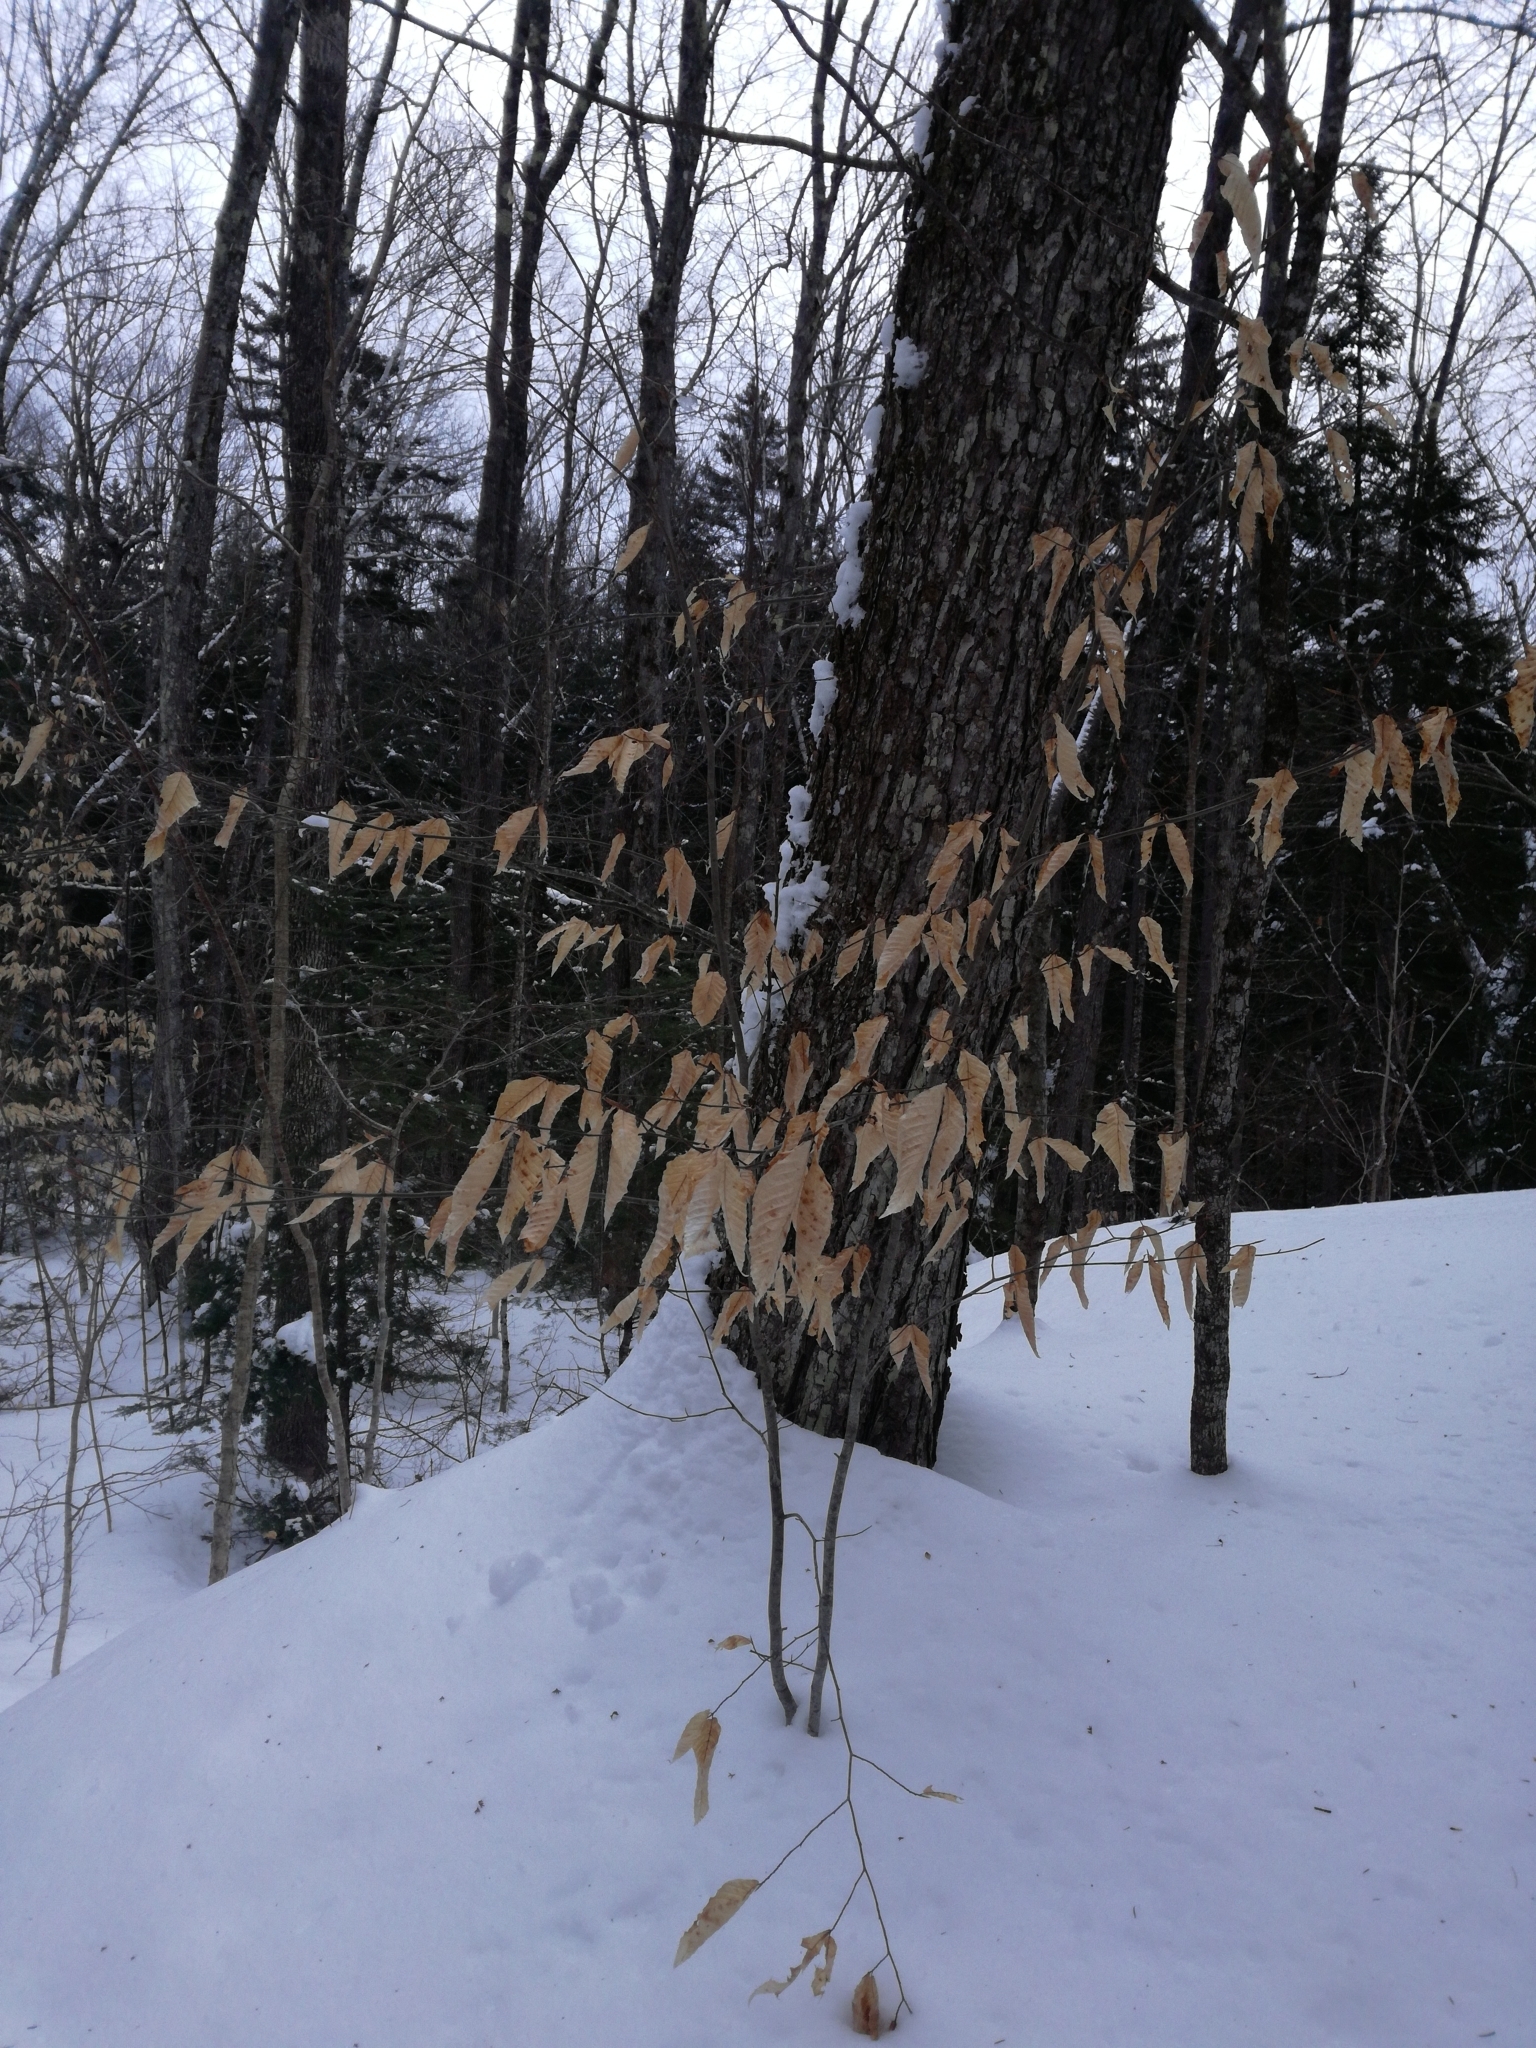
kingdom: Plantae
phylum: Tracheophyta
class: Magnoliopsida
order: Fagales
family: Fagaceae
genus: Fagus
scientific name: Fagus grandifolia
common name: American beech
